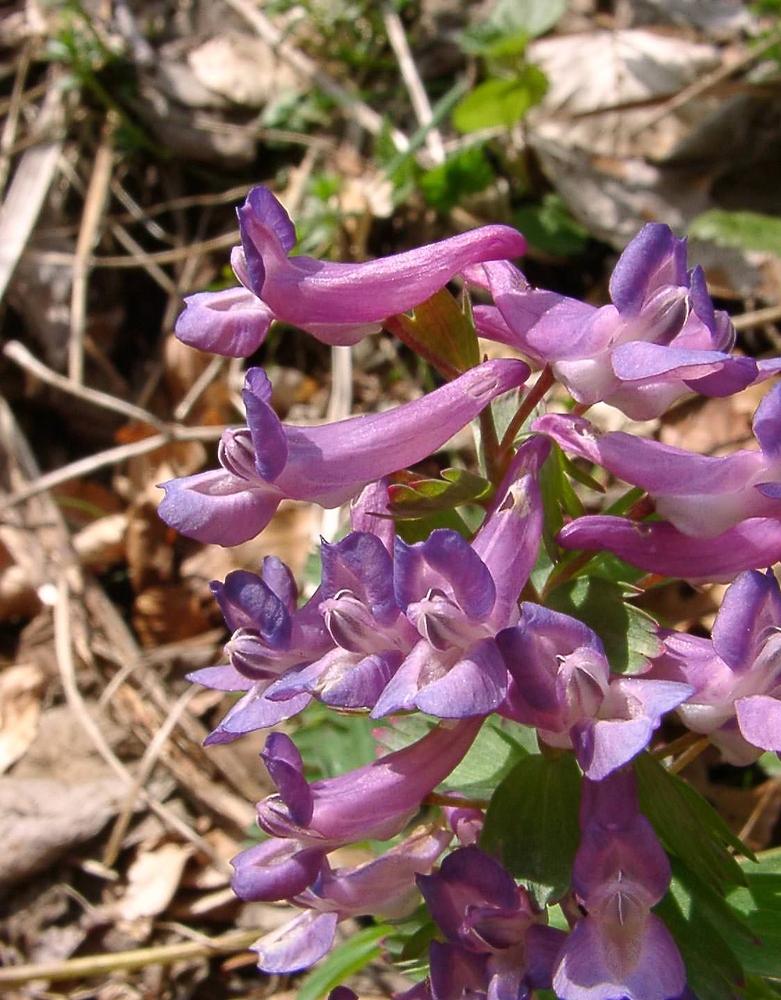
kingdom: Plantae
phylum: Tracheophyta
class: Magnoliopsida
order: Ranunculales
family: Papaveraceae
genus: Corydalis
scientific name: Corydalis solida
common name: Bird-in-a-bush
